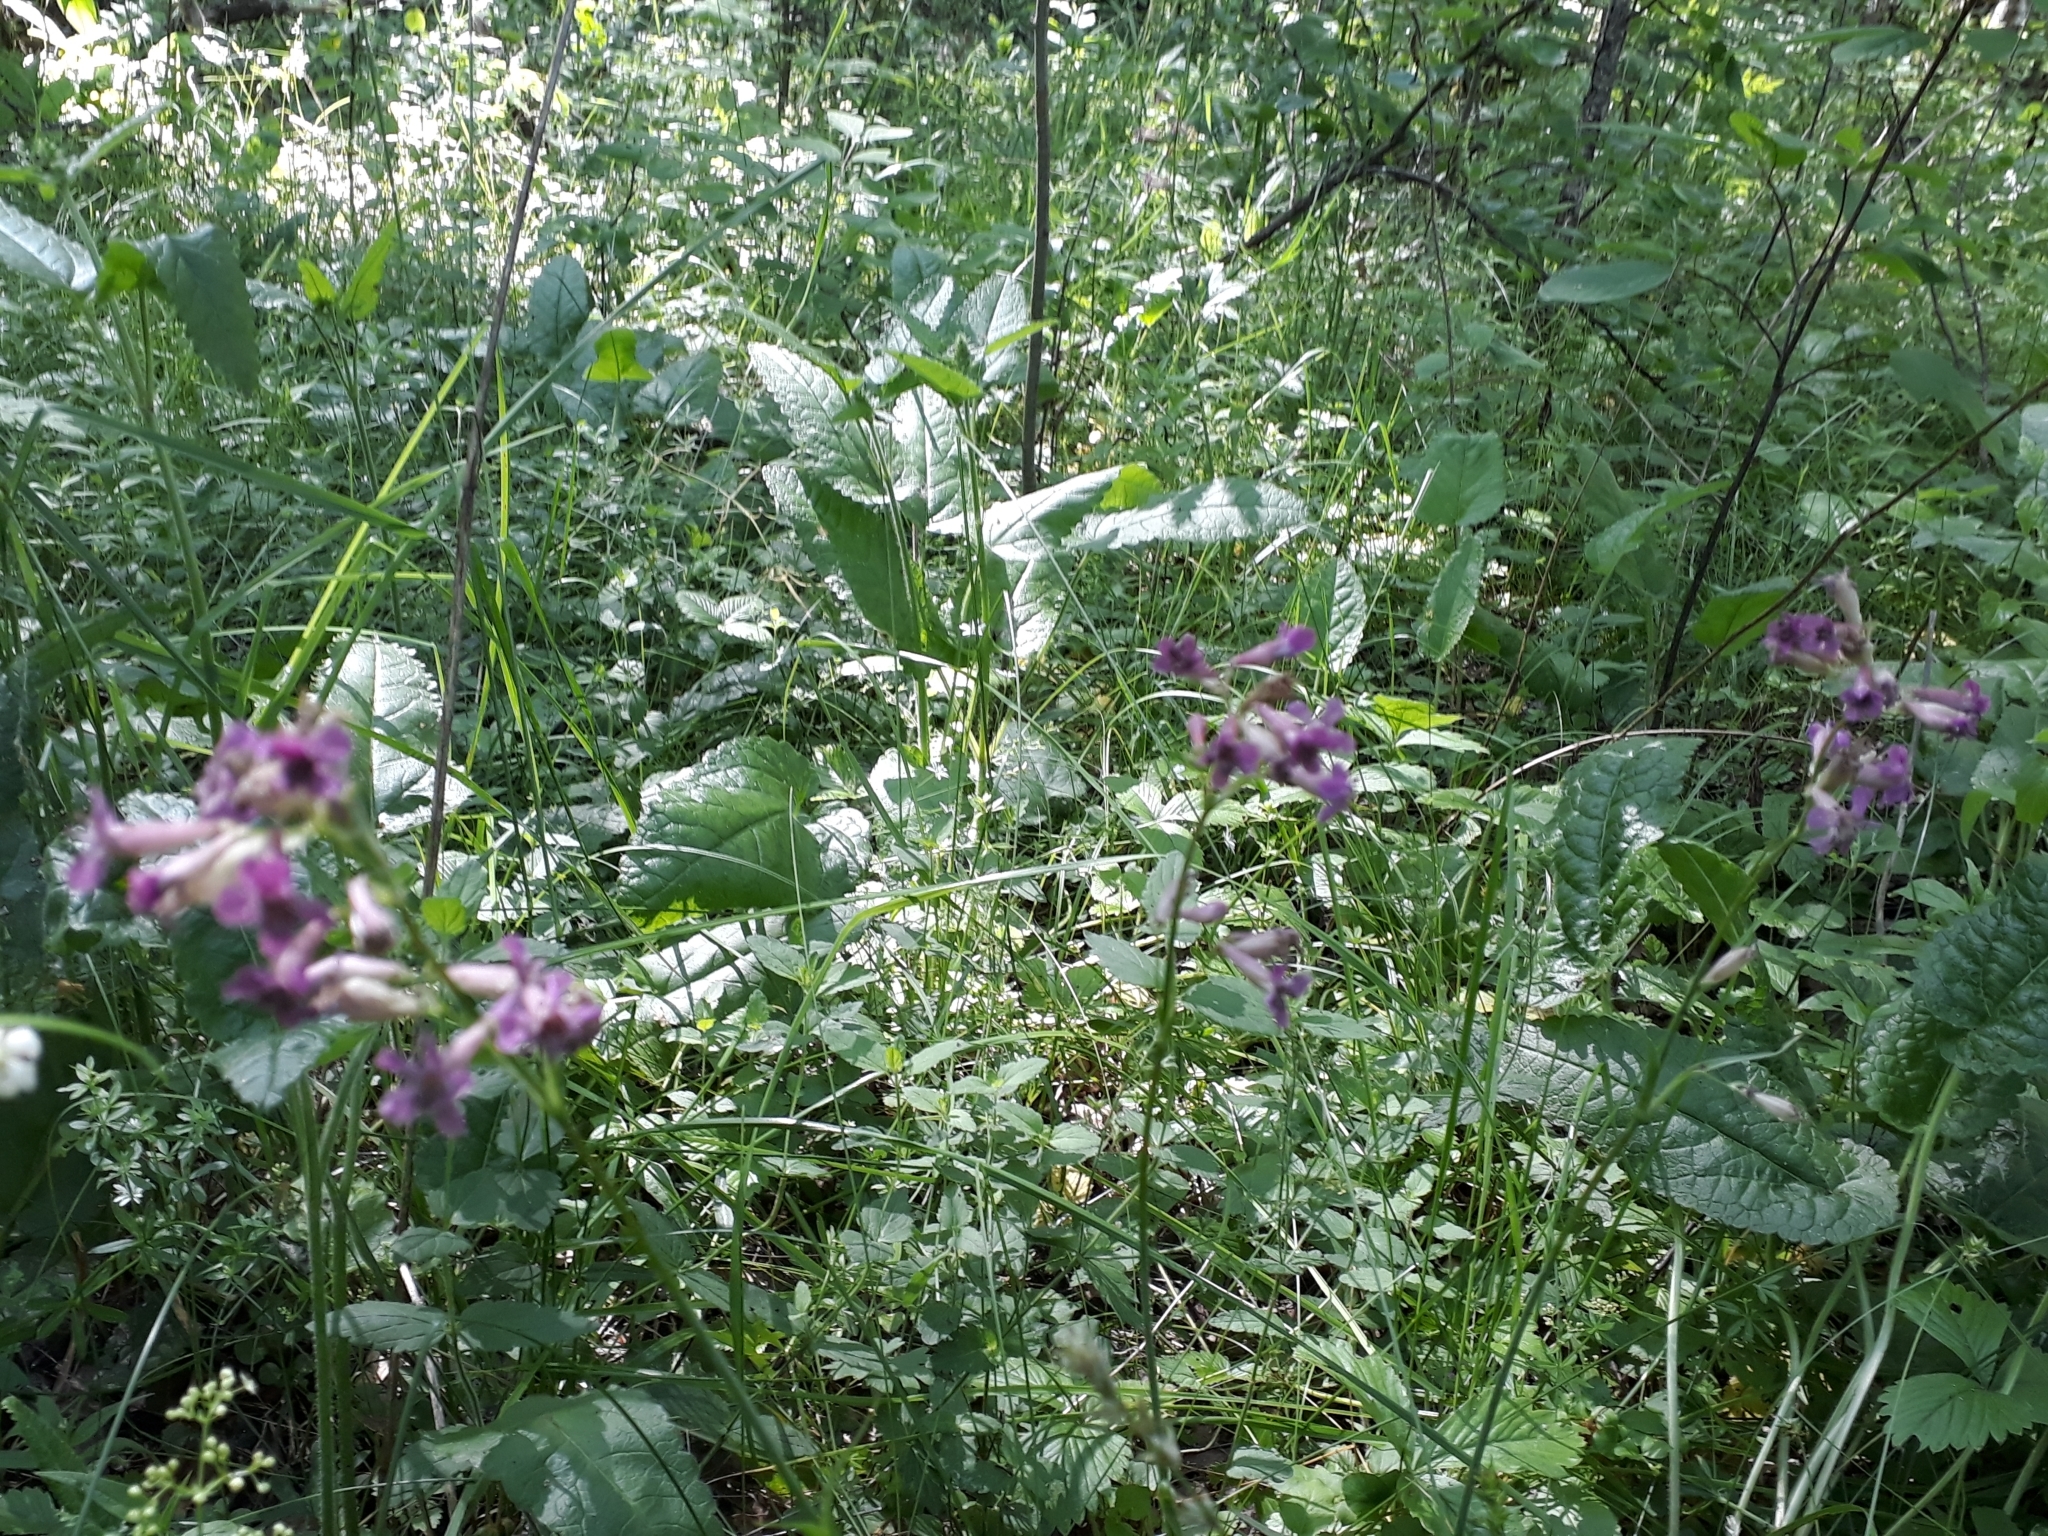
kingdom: Plantae
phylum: Tracheophyta
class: Magnoliopsida
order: Caryophyllales
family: Caryophyllaceae
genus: Viscaria
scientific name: Viscaria vulgaris
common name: Clammy campion
